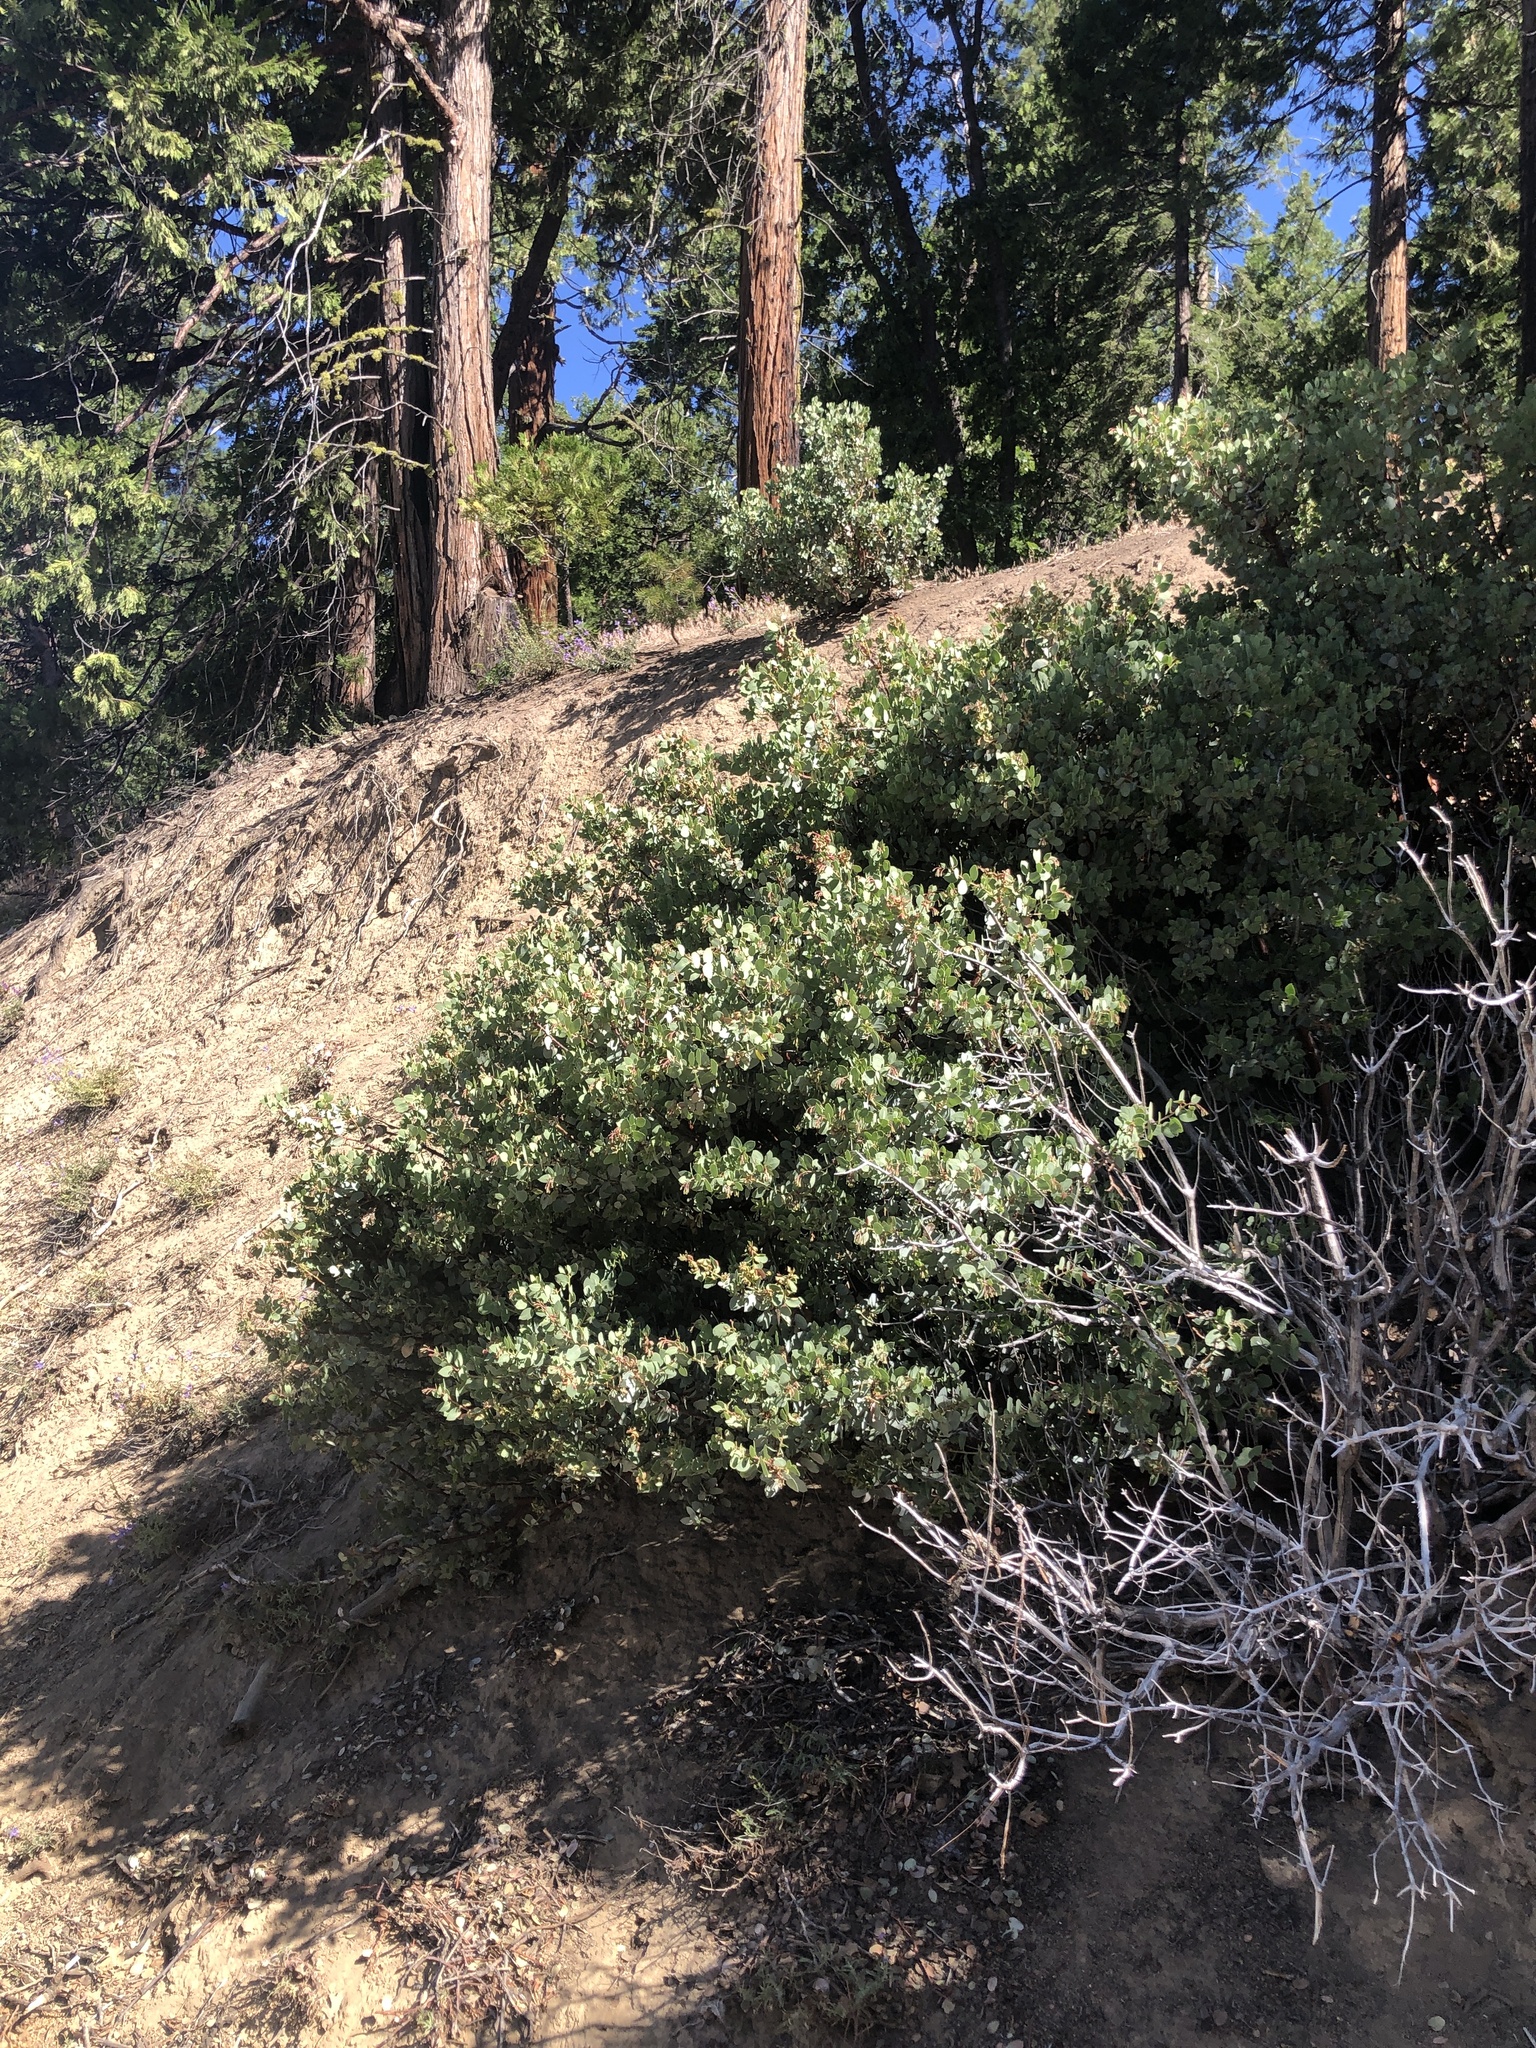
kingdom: Plantae
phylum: Tracheophyta
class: Magnoliopsida
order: Ericales
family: Ericaceae
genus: Arctostaphylos
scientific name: Arctostaphylos viscida
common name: White-leaf manzanita
